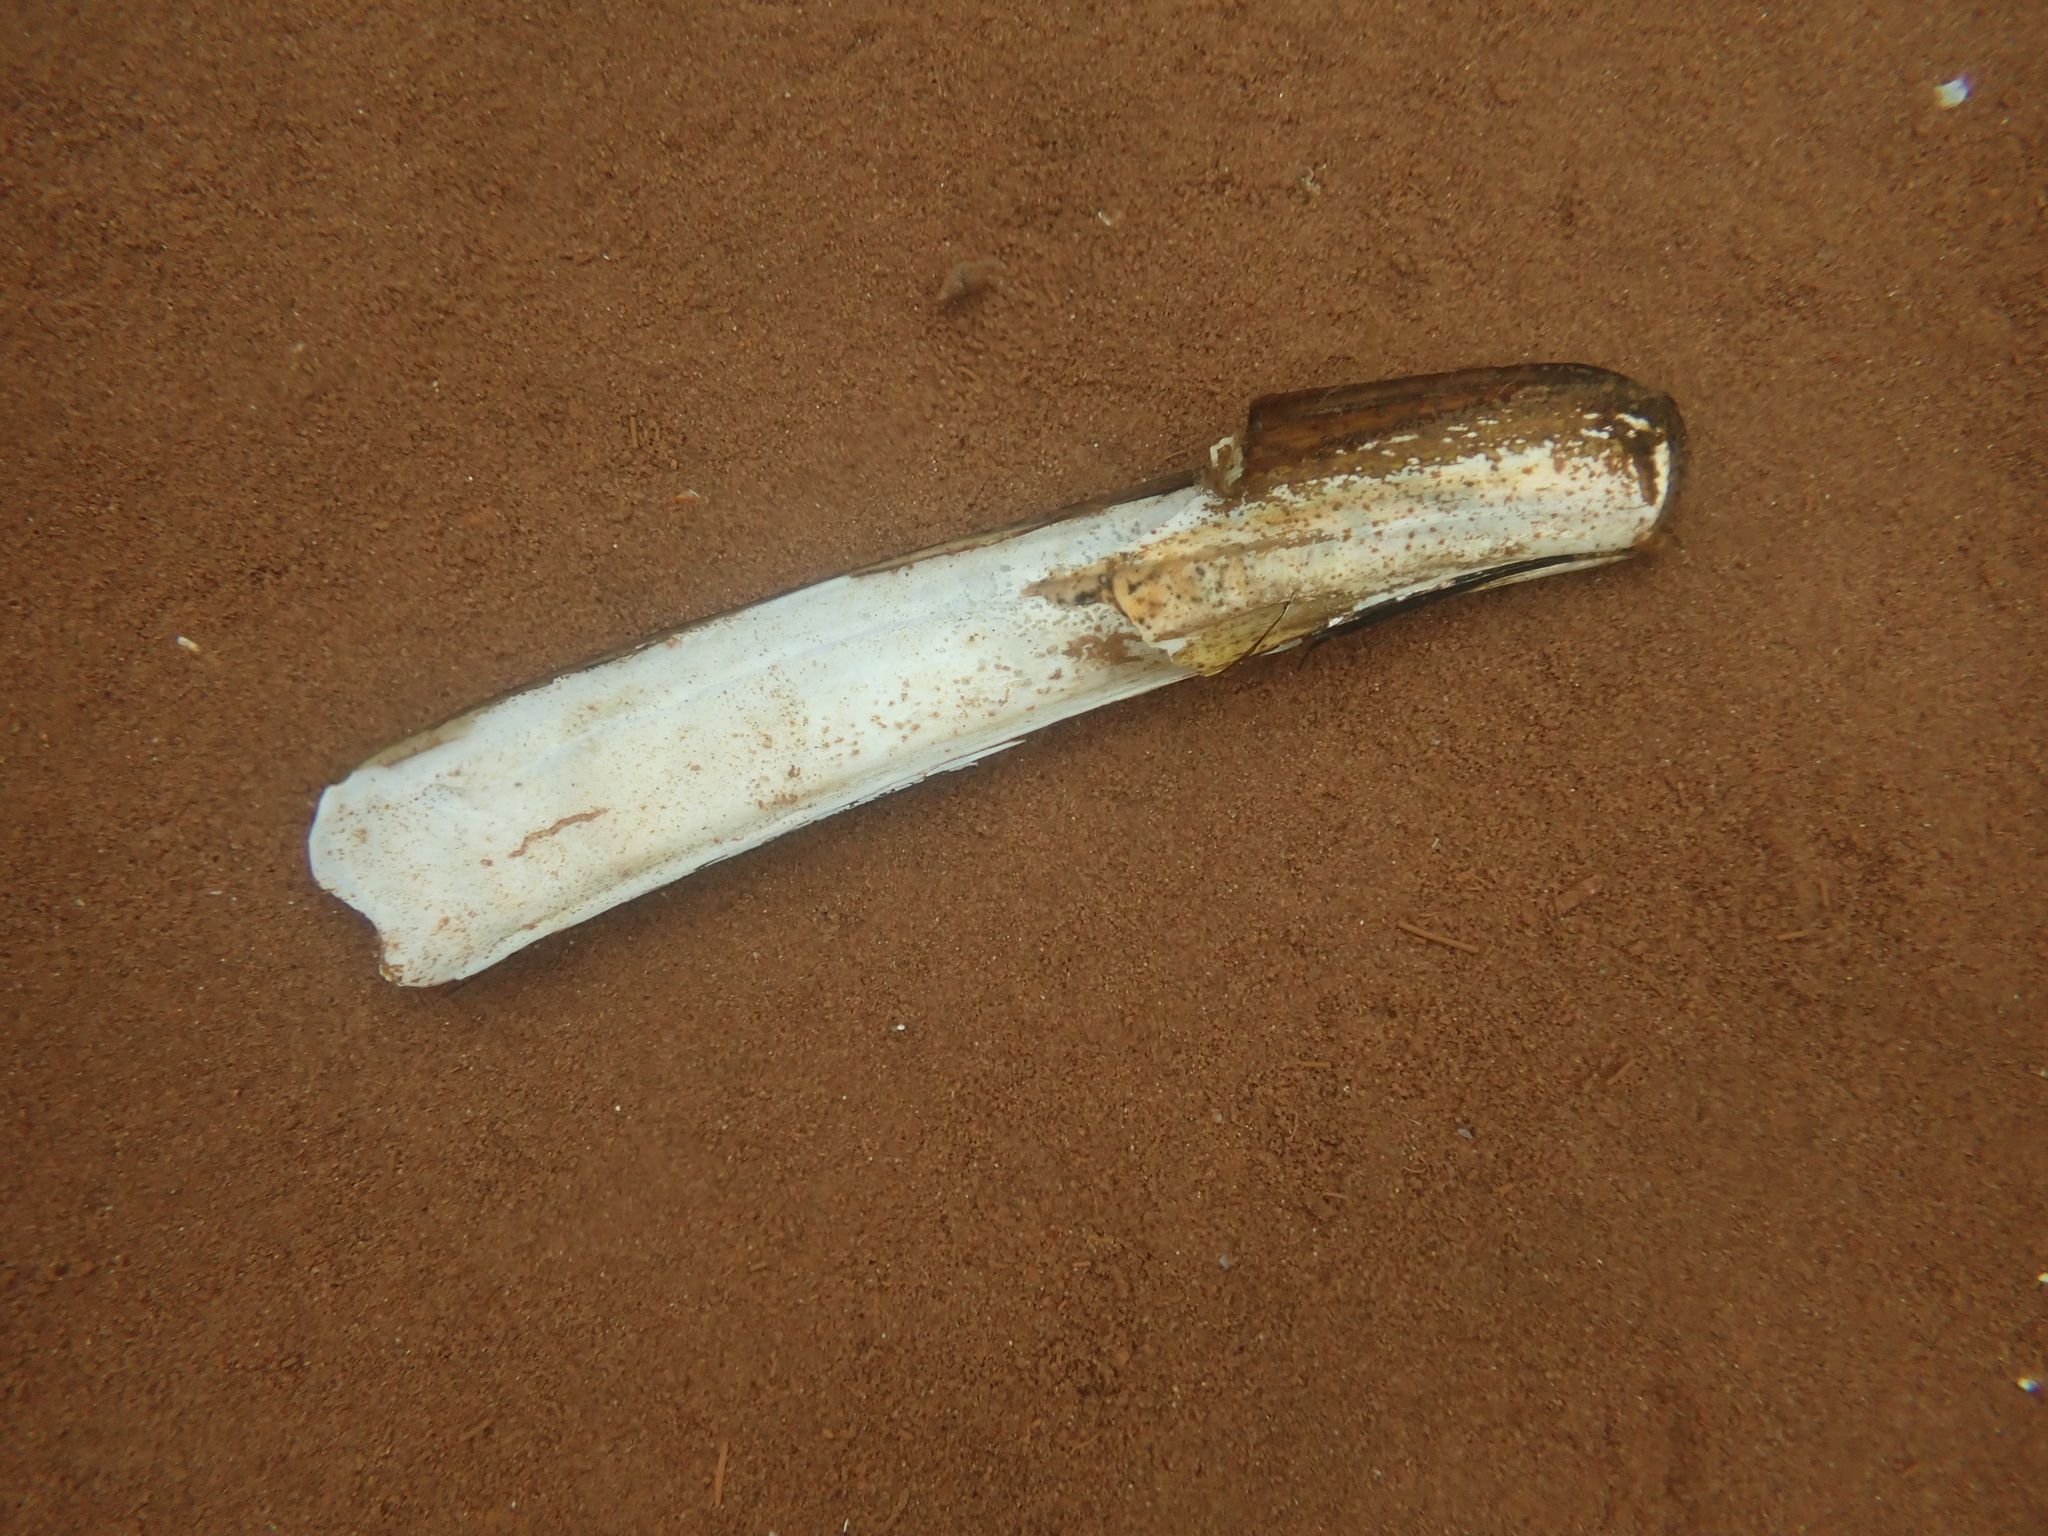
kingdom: Animalia
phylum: Mollusca
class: Bivalvia
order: Adapedonta
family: Pharidae
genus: Ensis
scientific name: Ensis leei
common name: American jack knife clam
